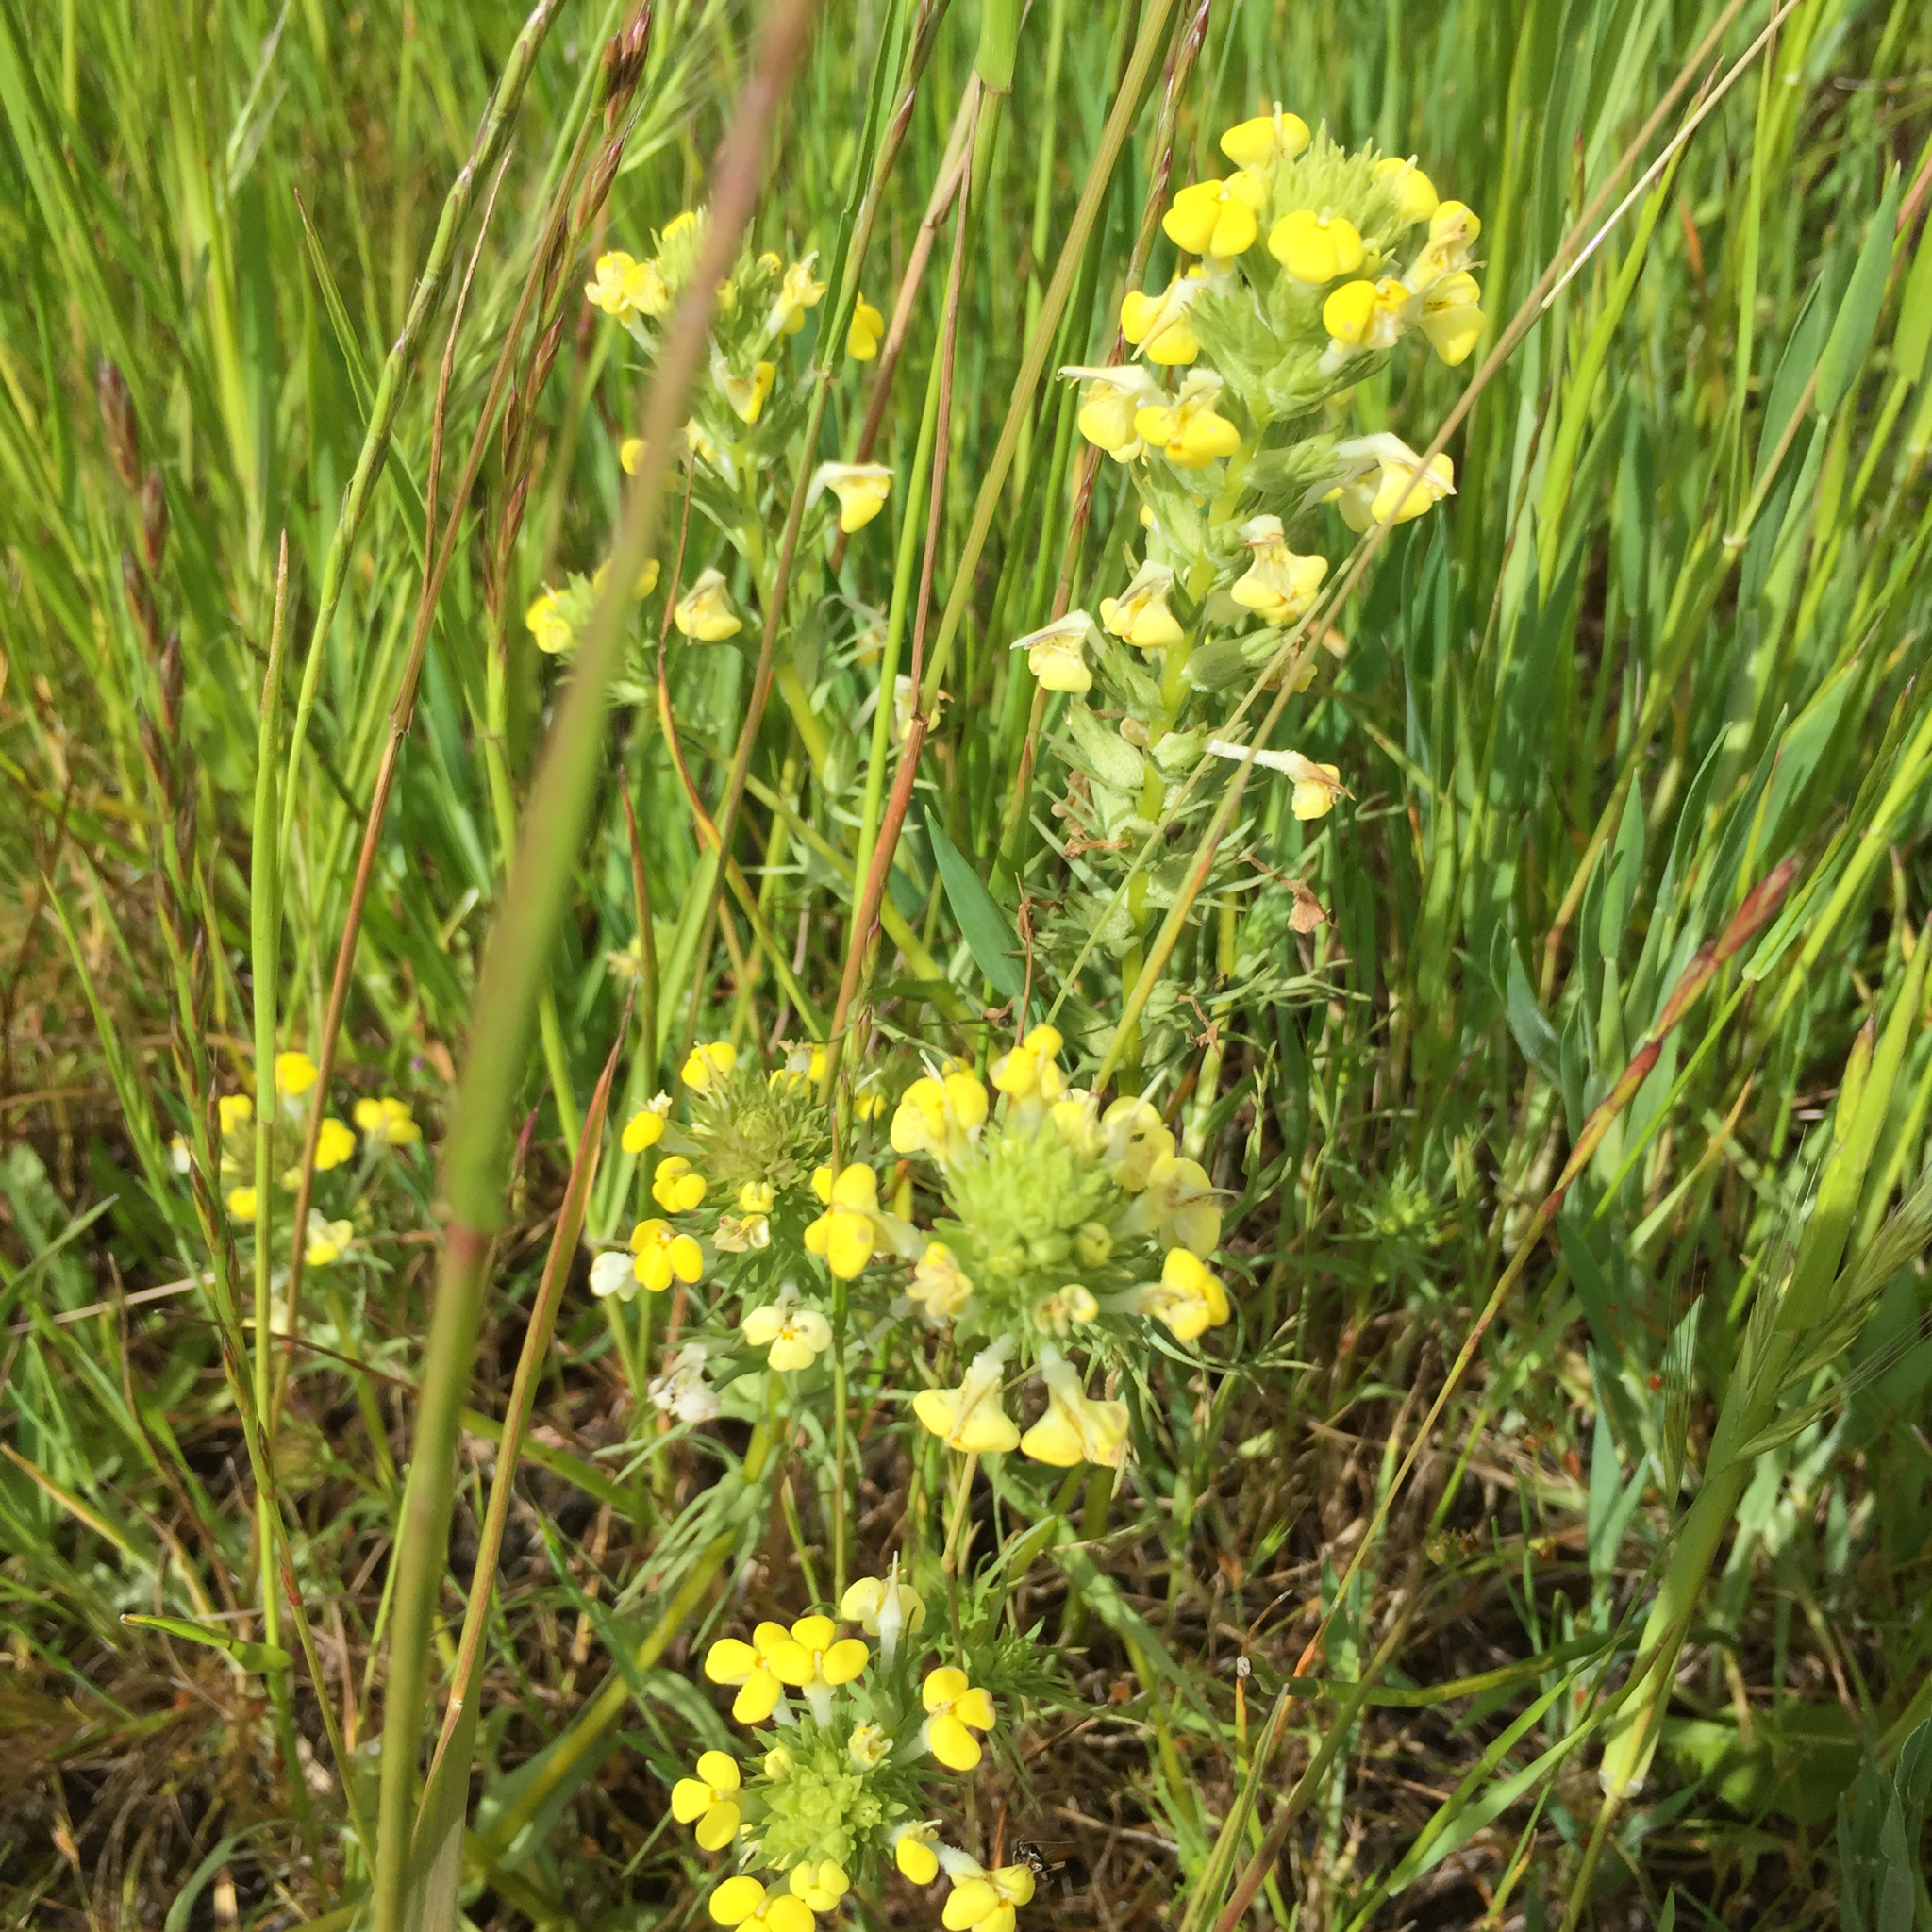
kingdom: Plantae
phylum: Tracheophyta
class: Magnoliopsida
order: Lamiales
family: Orobanchaceae
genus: Triphysaria
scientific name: Triphysaria versicolor
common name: Bearded false owl-clover
